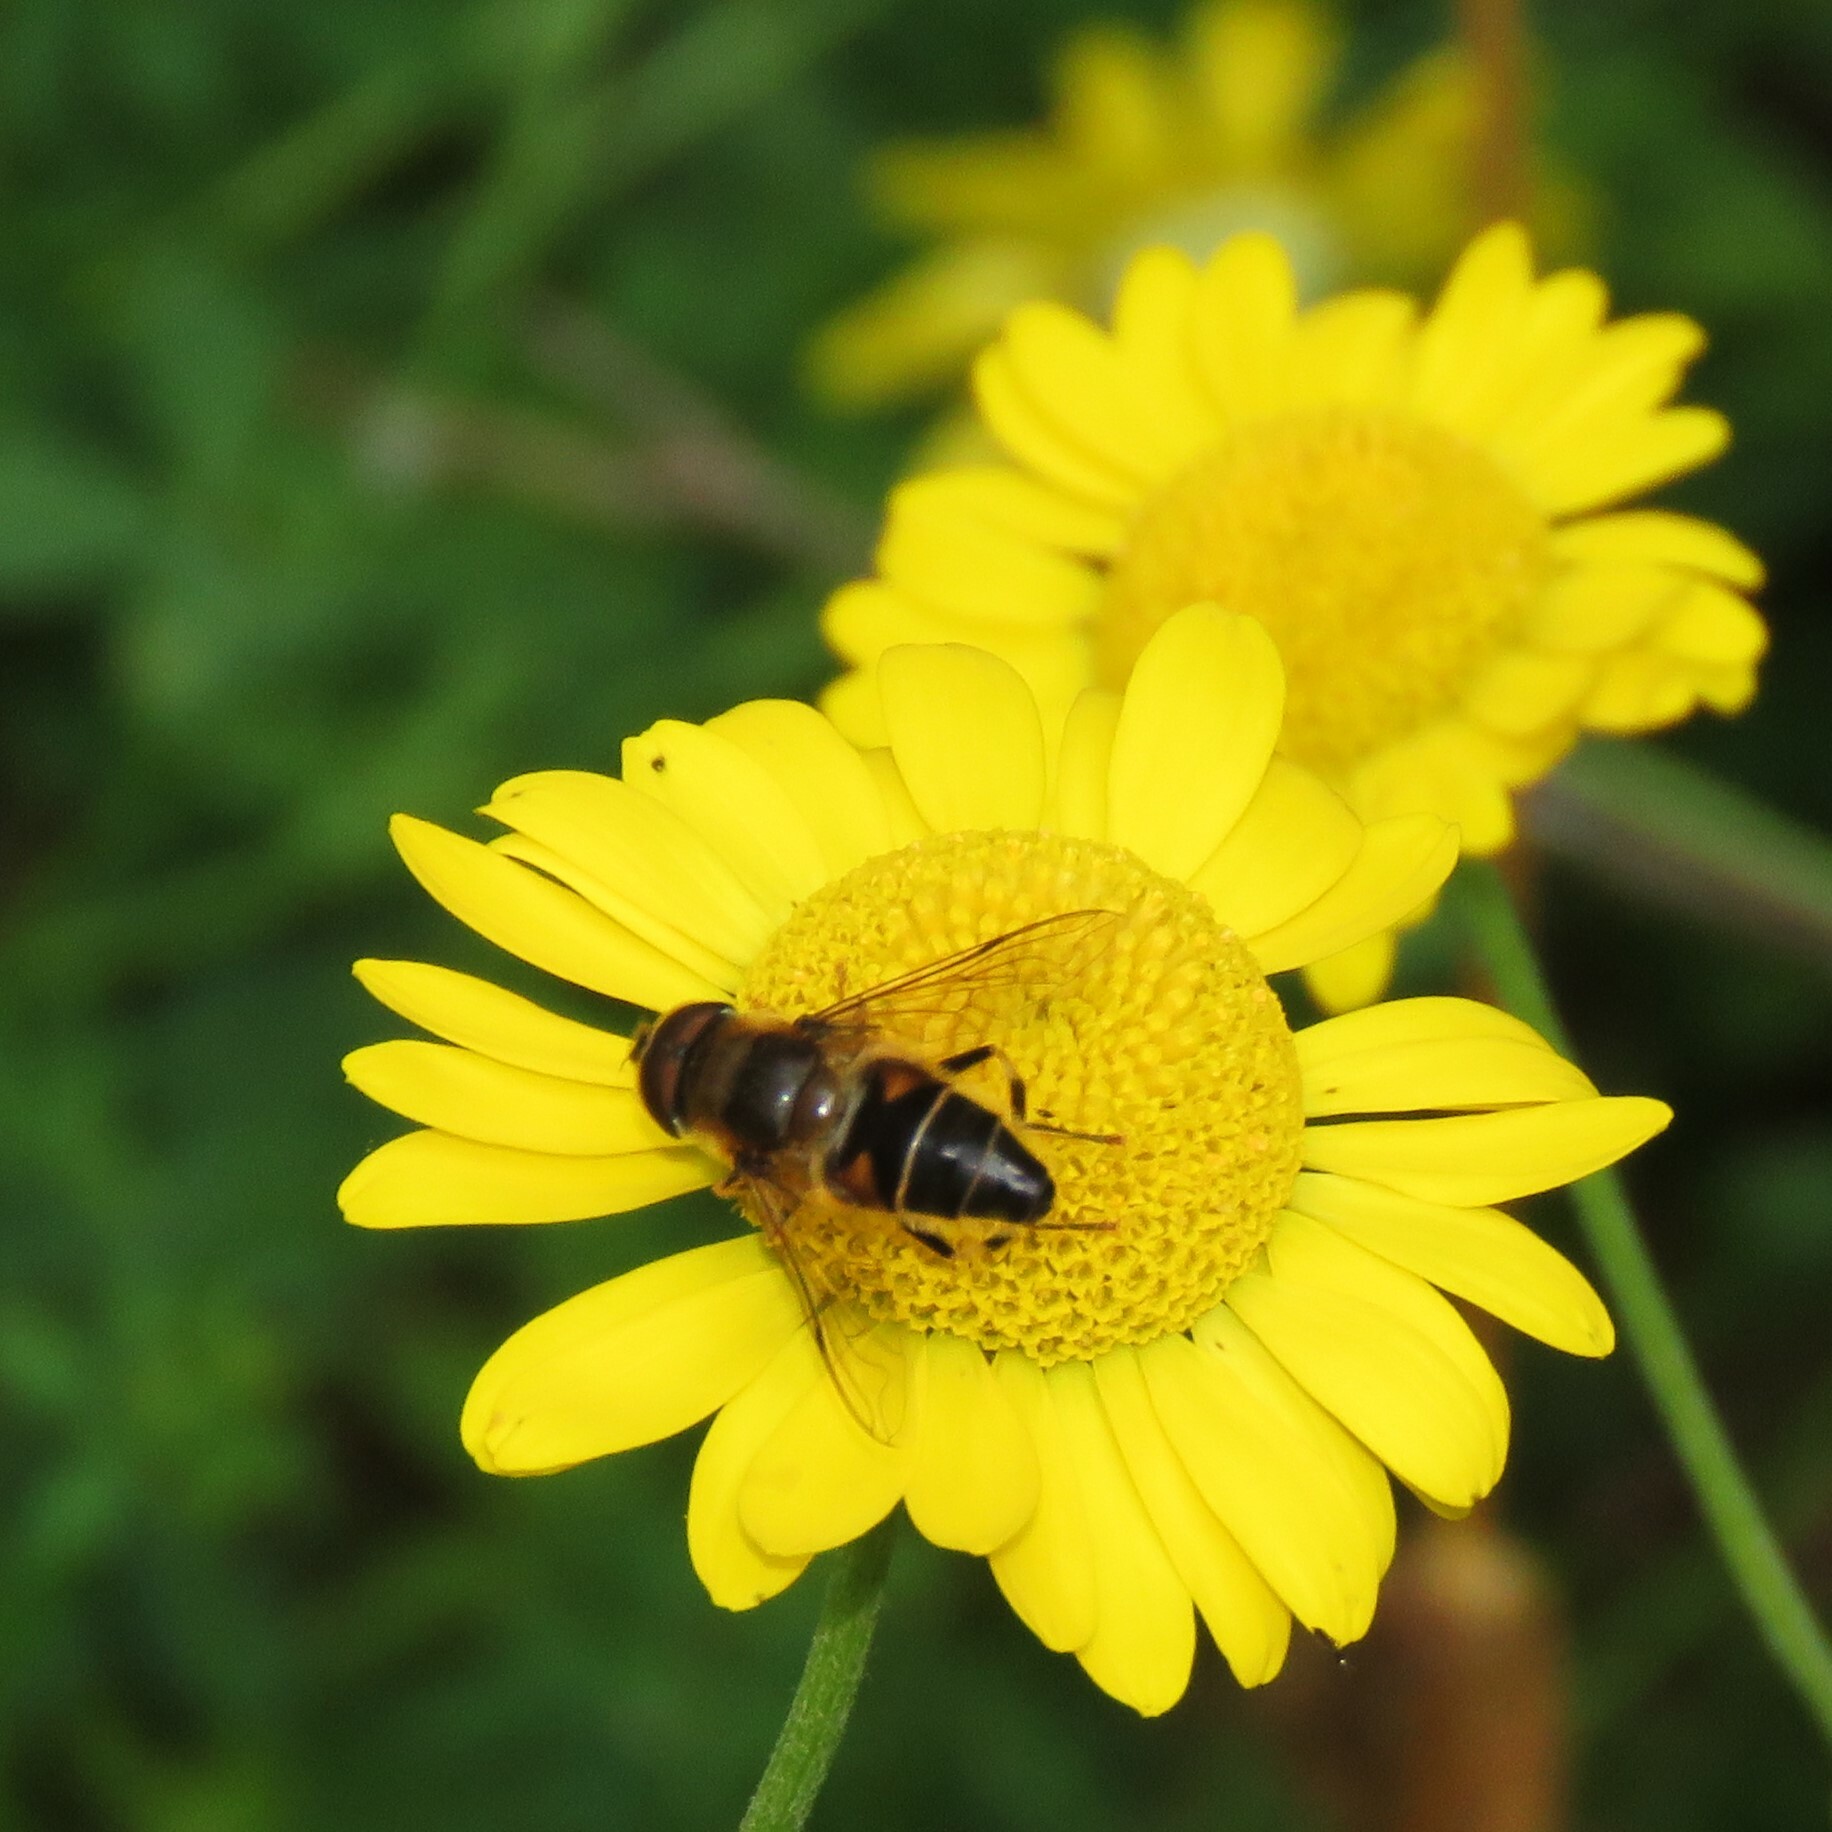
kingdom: Animalia
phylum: Arthropoda
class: Insecta
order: Diptera
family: Syrphidae
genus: Eristalis
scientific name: Eristalis pertinax
